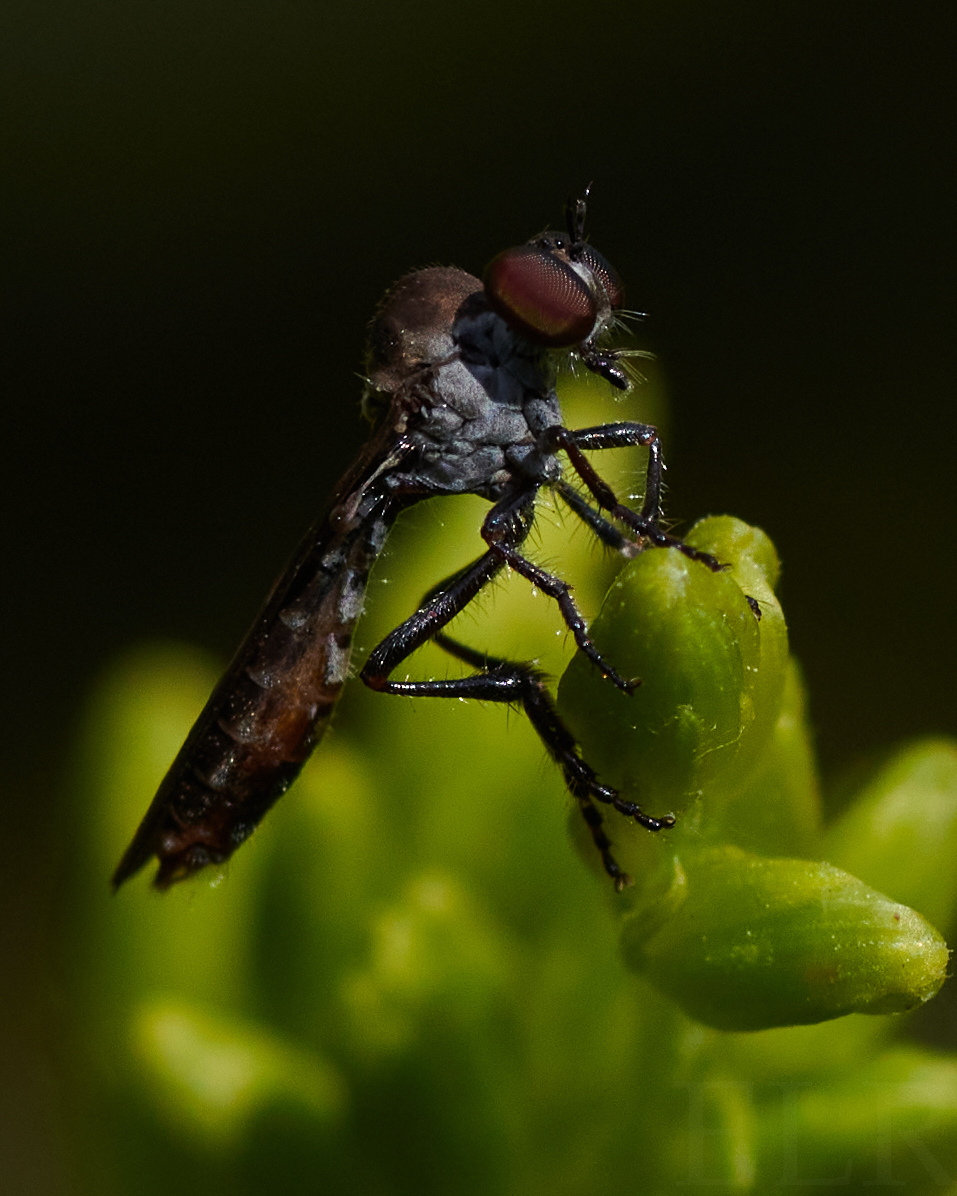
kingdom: Animalia
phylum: Arthropoda
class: Insecta
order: Diptera
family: Asilidae
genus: Holcocephala
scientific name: Holcocephala calva
